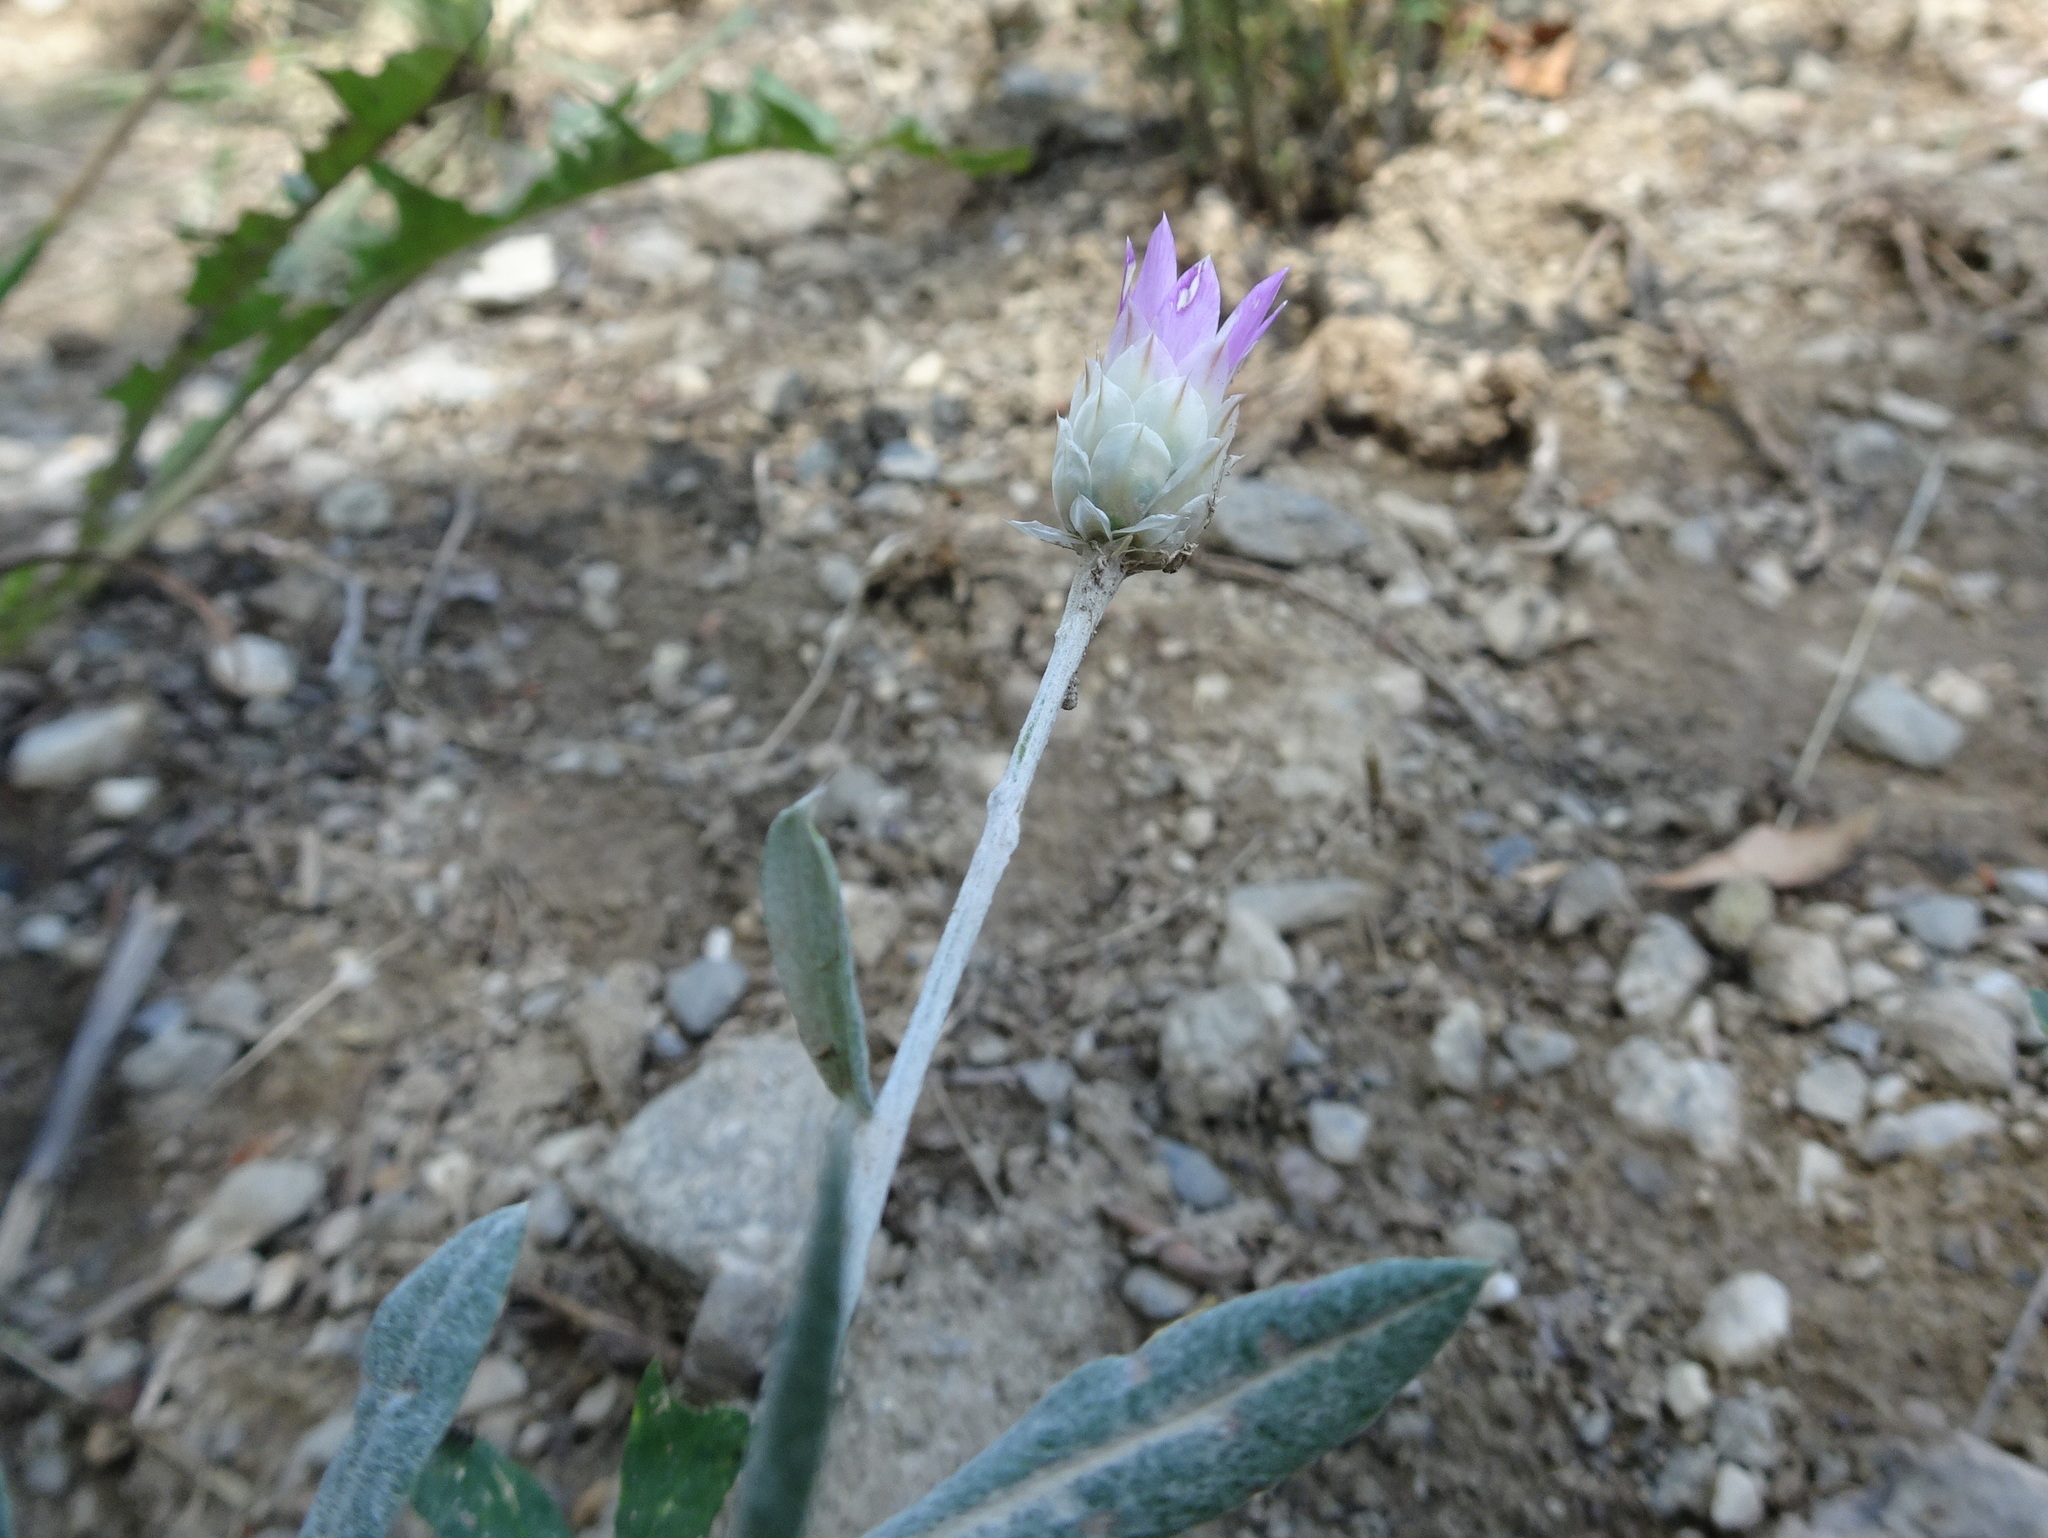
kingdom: Plantae
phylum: Tracheophyta
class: Magnoliopsida
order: Asterales
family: Asteraceae
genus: Xeranthemum
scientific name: Xeranthemum inapertum
